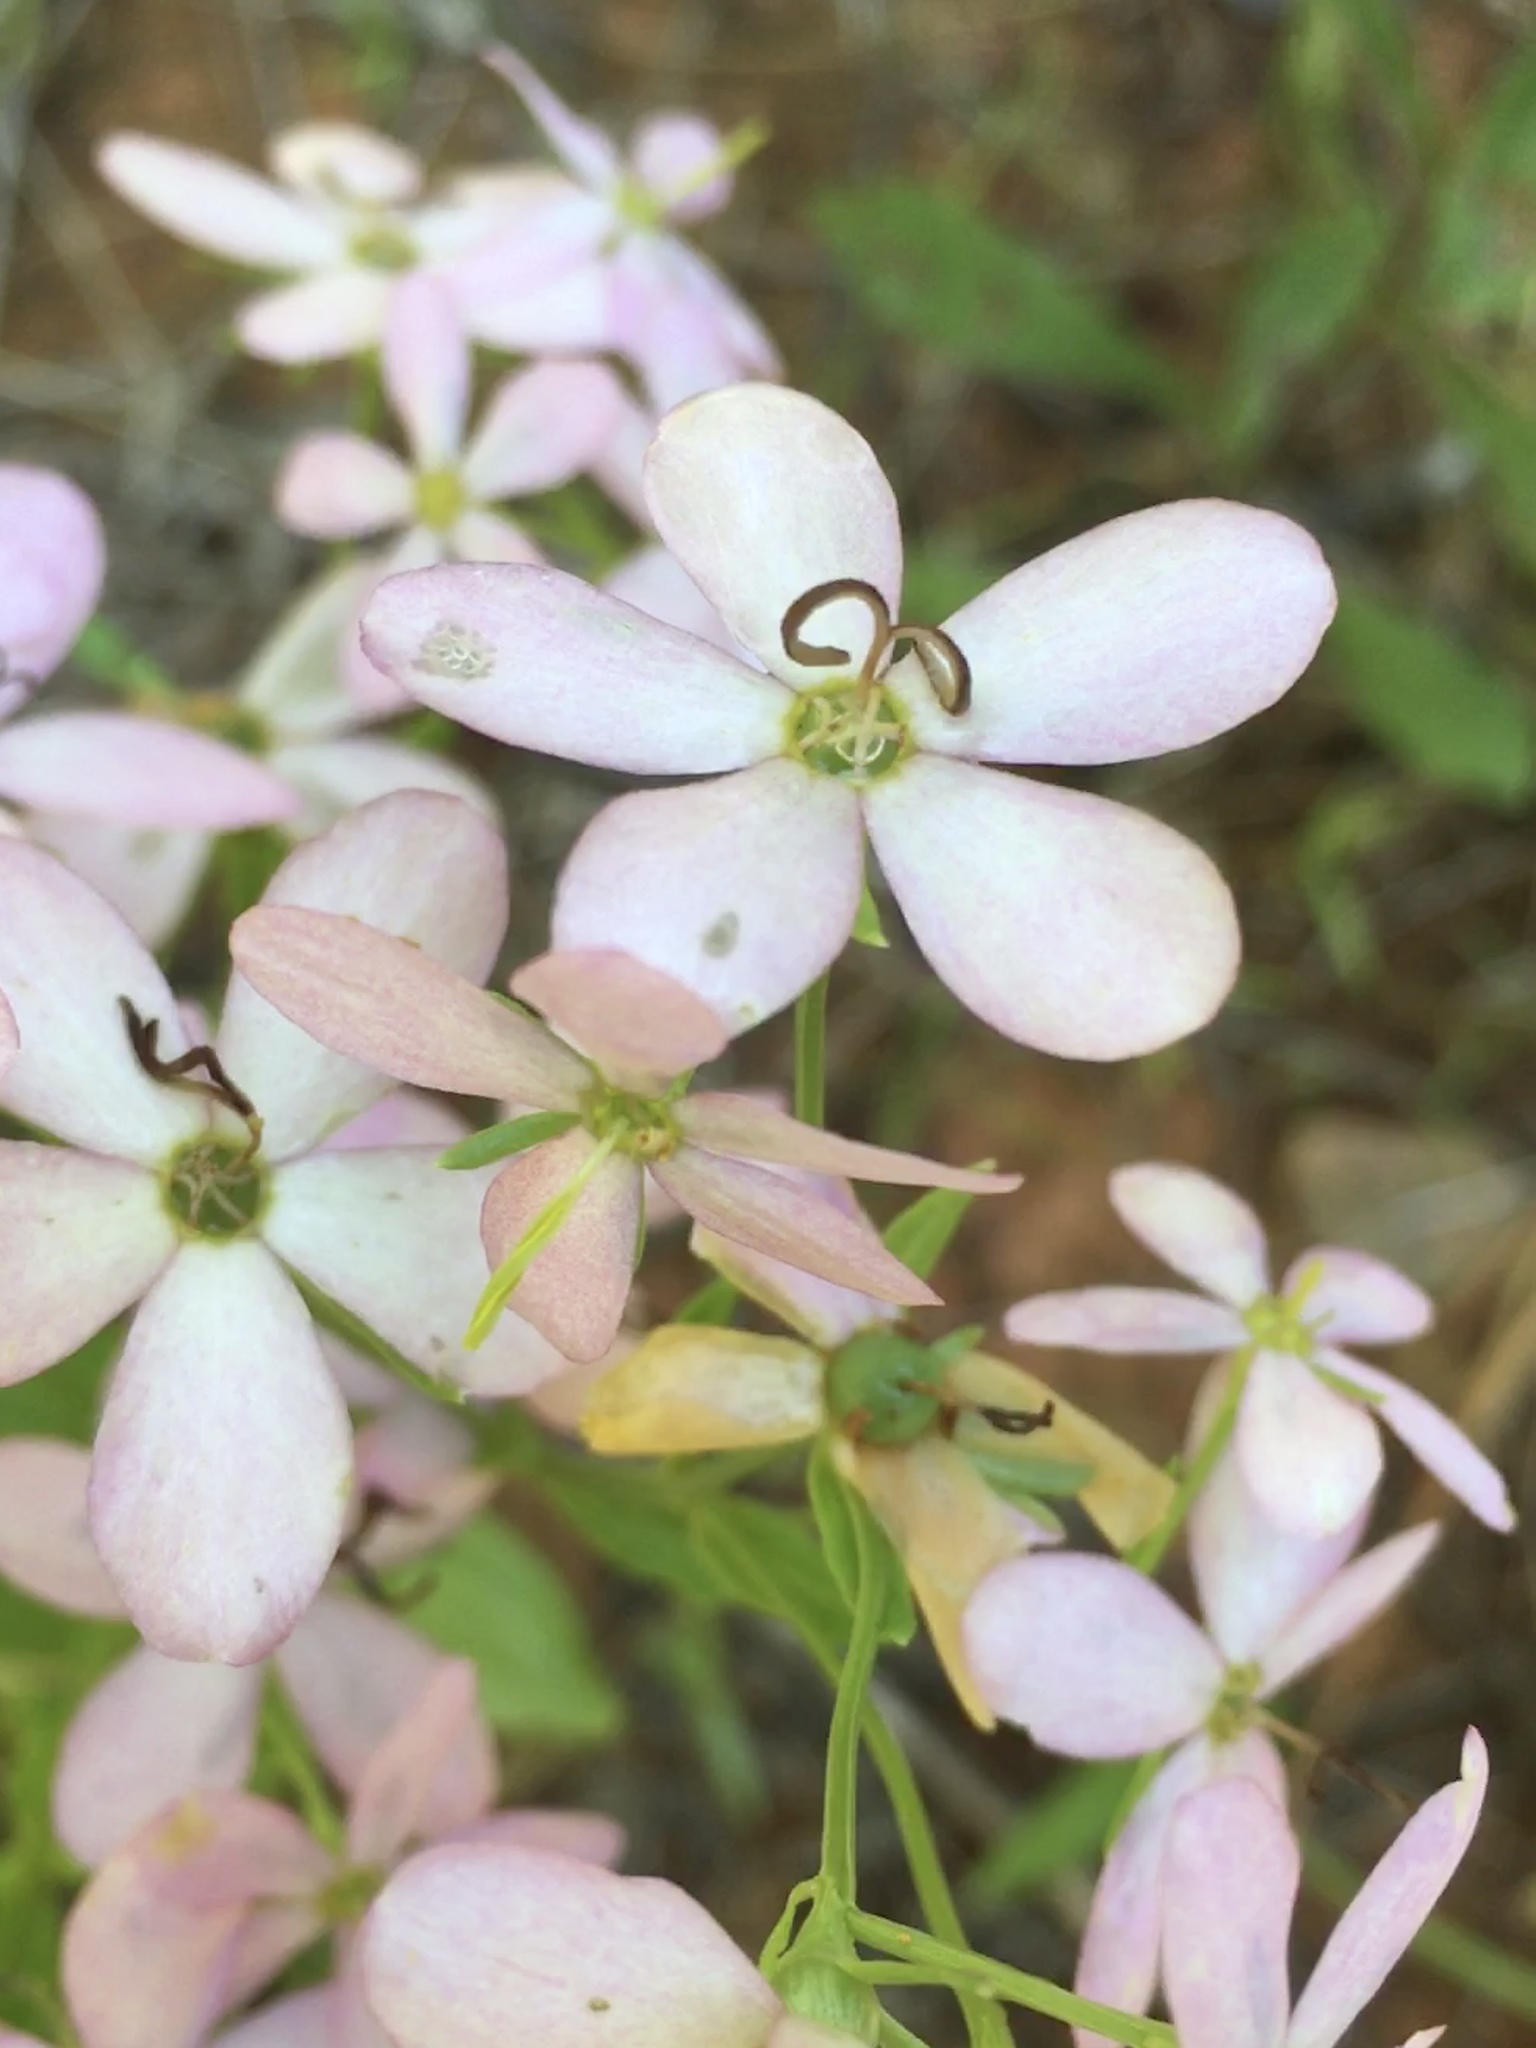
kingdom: Plantae
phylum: Tracheophyta
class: Magnoliopsida
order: Gentianales
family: Gentianaceae
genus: Sabatia
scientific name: Sabatia angularis
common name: Rose-pink
